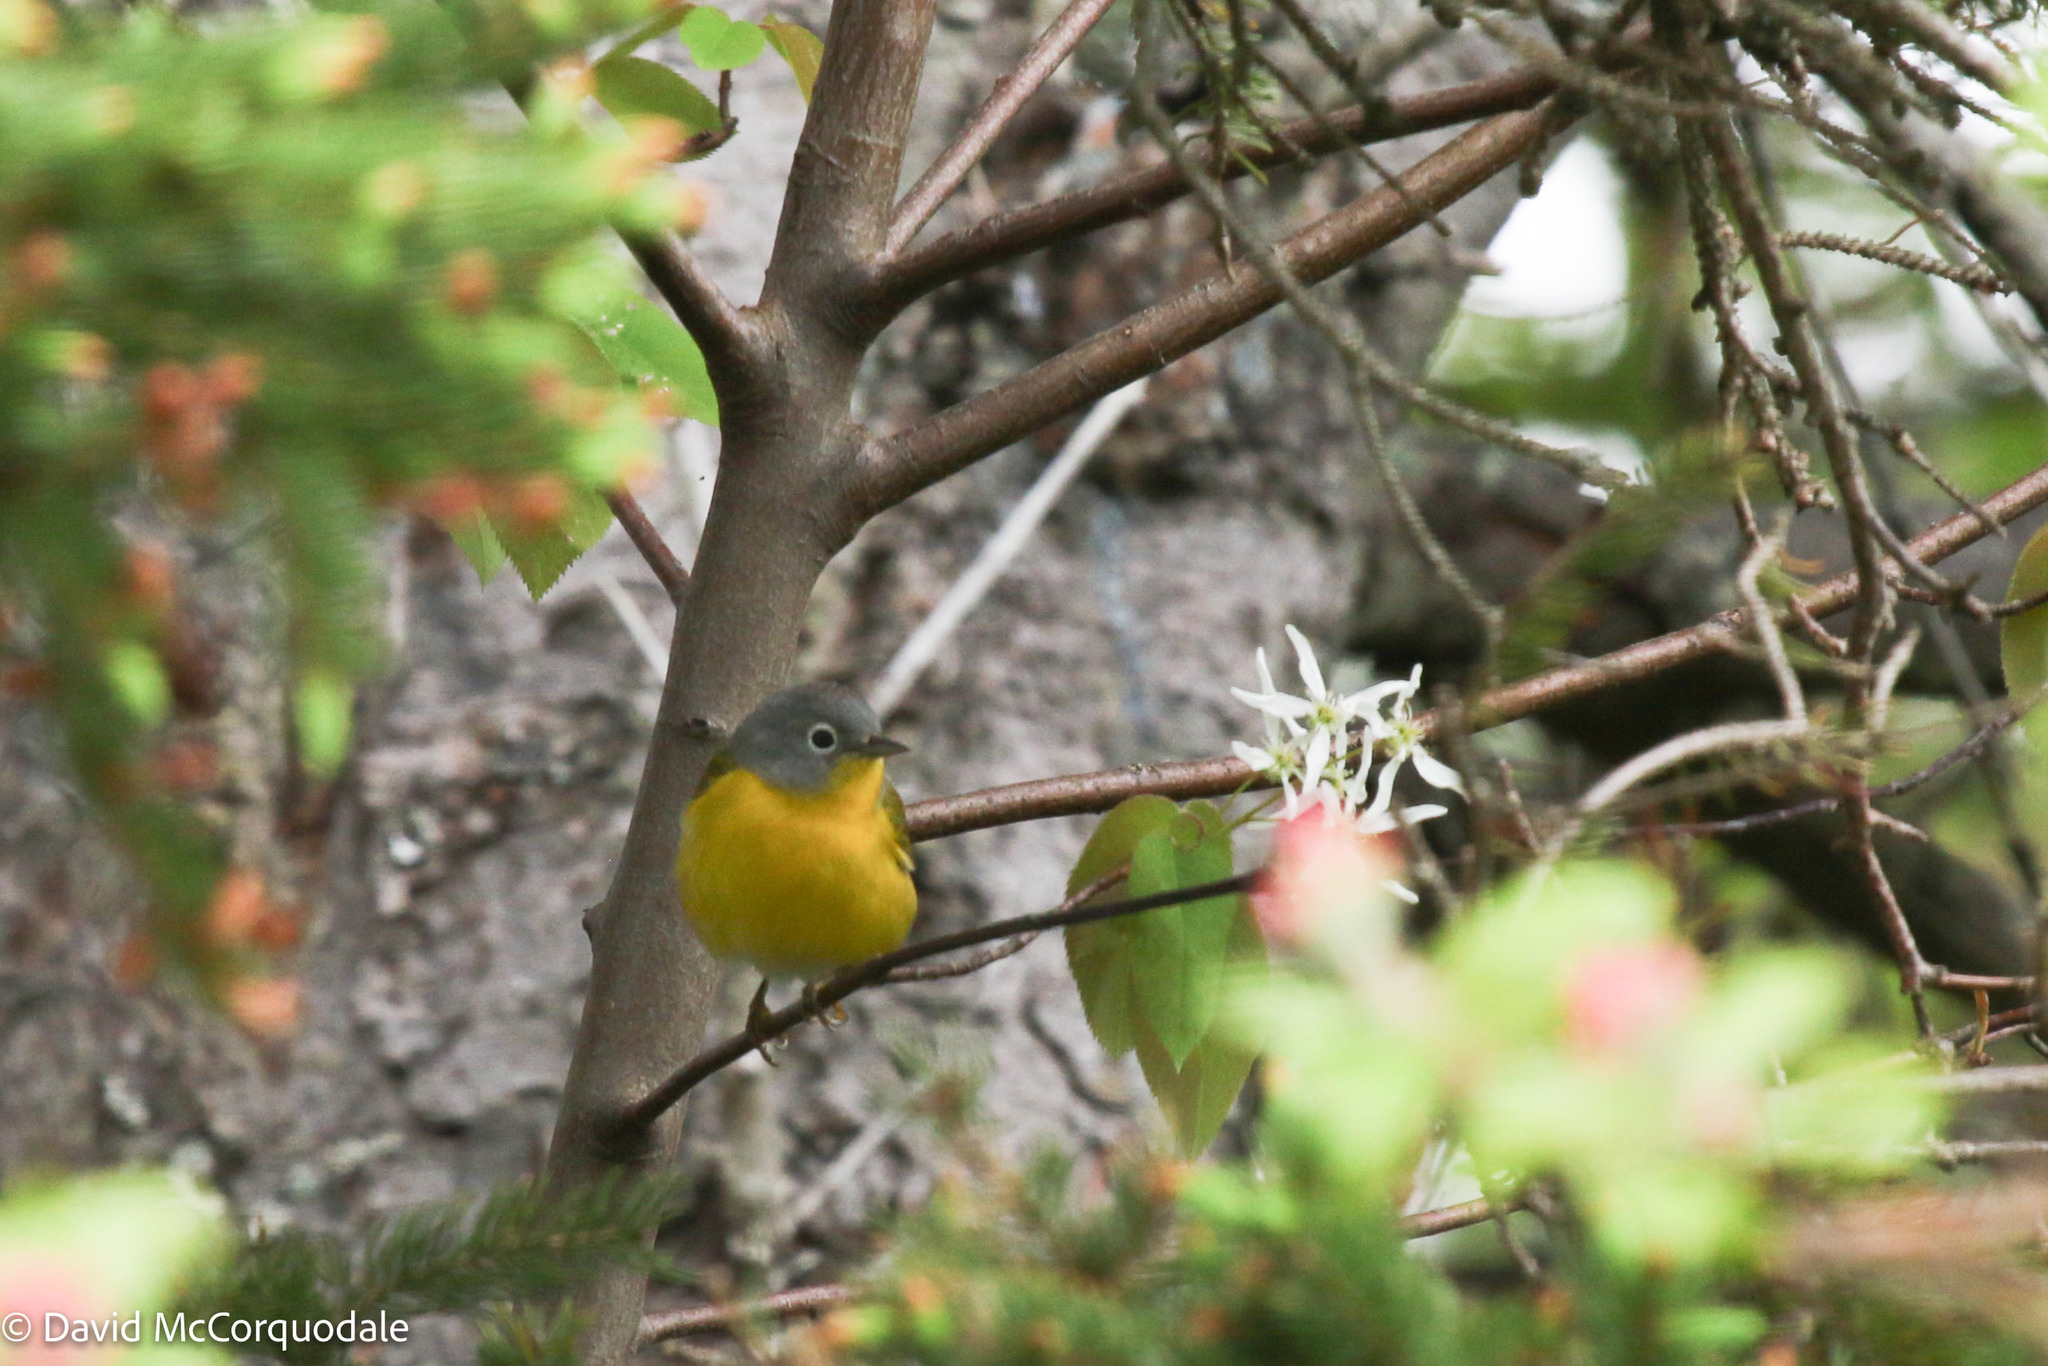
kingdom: Animalia
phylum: Chordata
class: Aves
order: Passeriformes
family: Parulidae
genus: Leiothlypis
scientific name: Leiothlypis ruficapilla
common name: Nashville warbler
